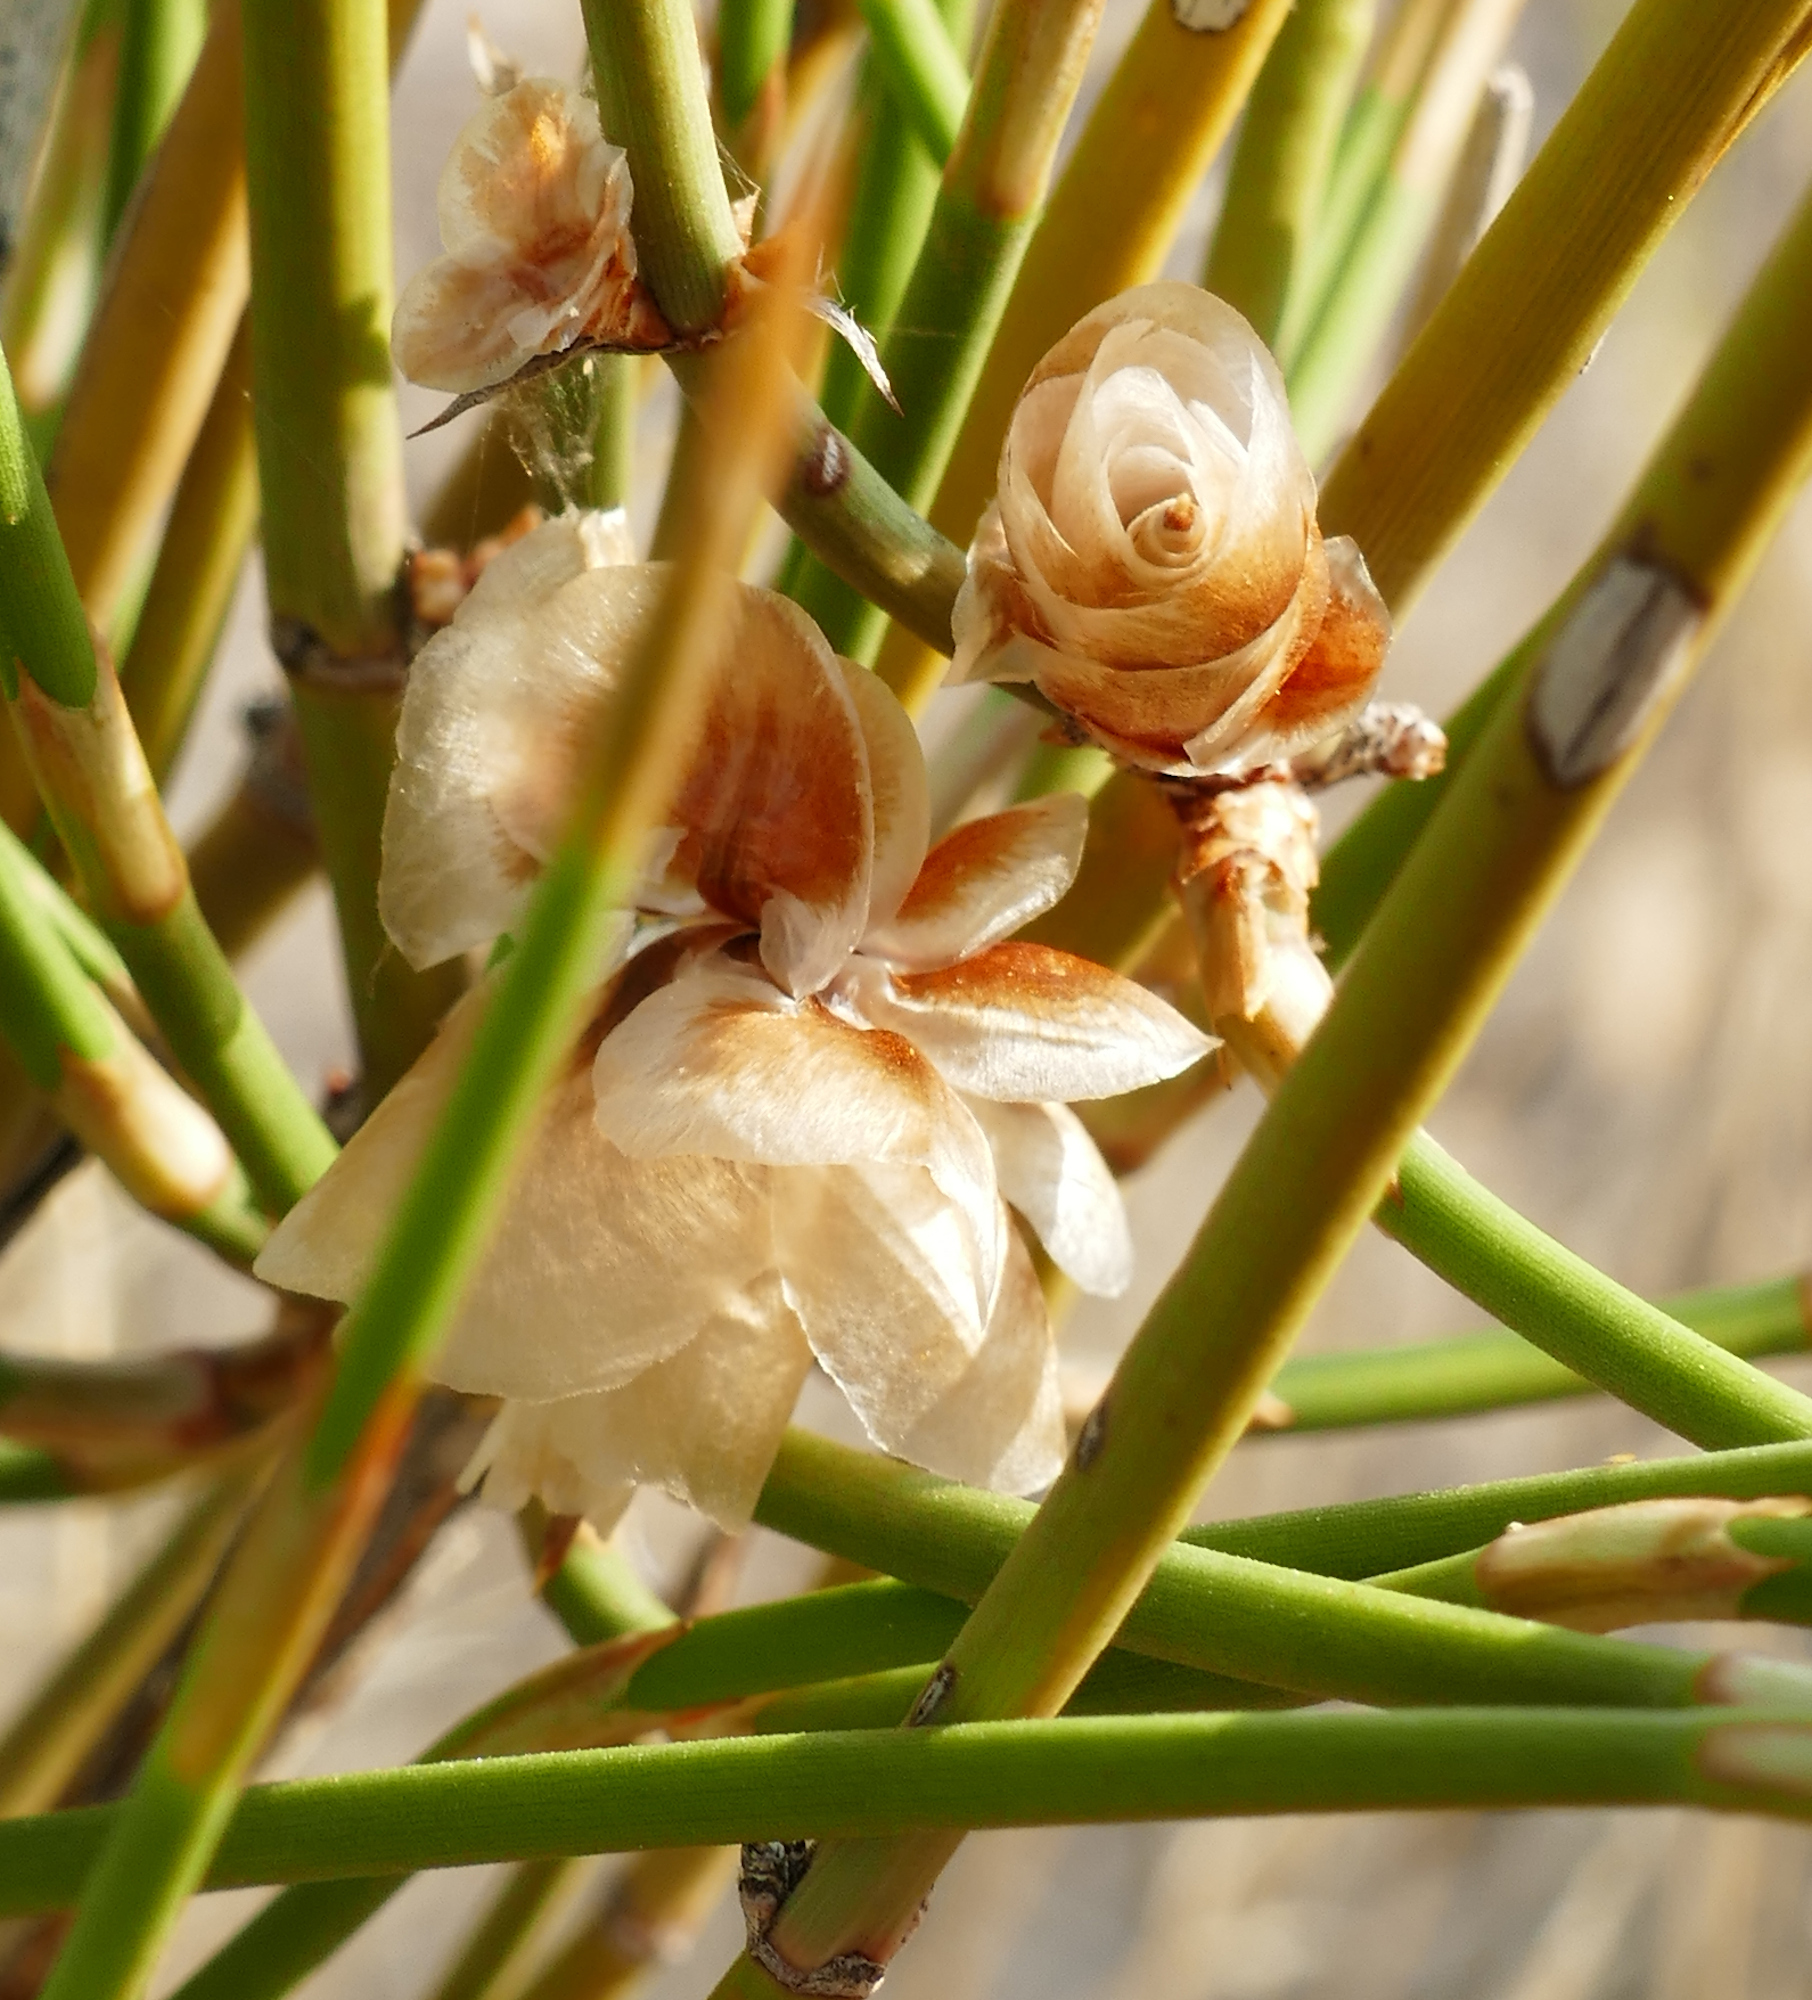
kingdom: Plantae
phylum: Tracheophyta
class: Gnetopsida
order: Ephedrales
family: Ephedraceae
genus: Ephedra
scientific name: Ephedra trifurca
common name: Mexican-tea
